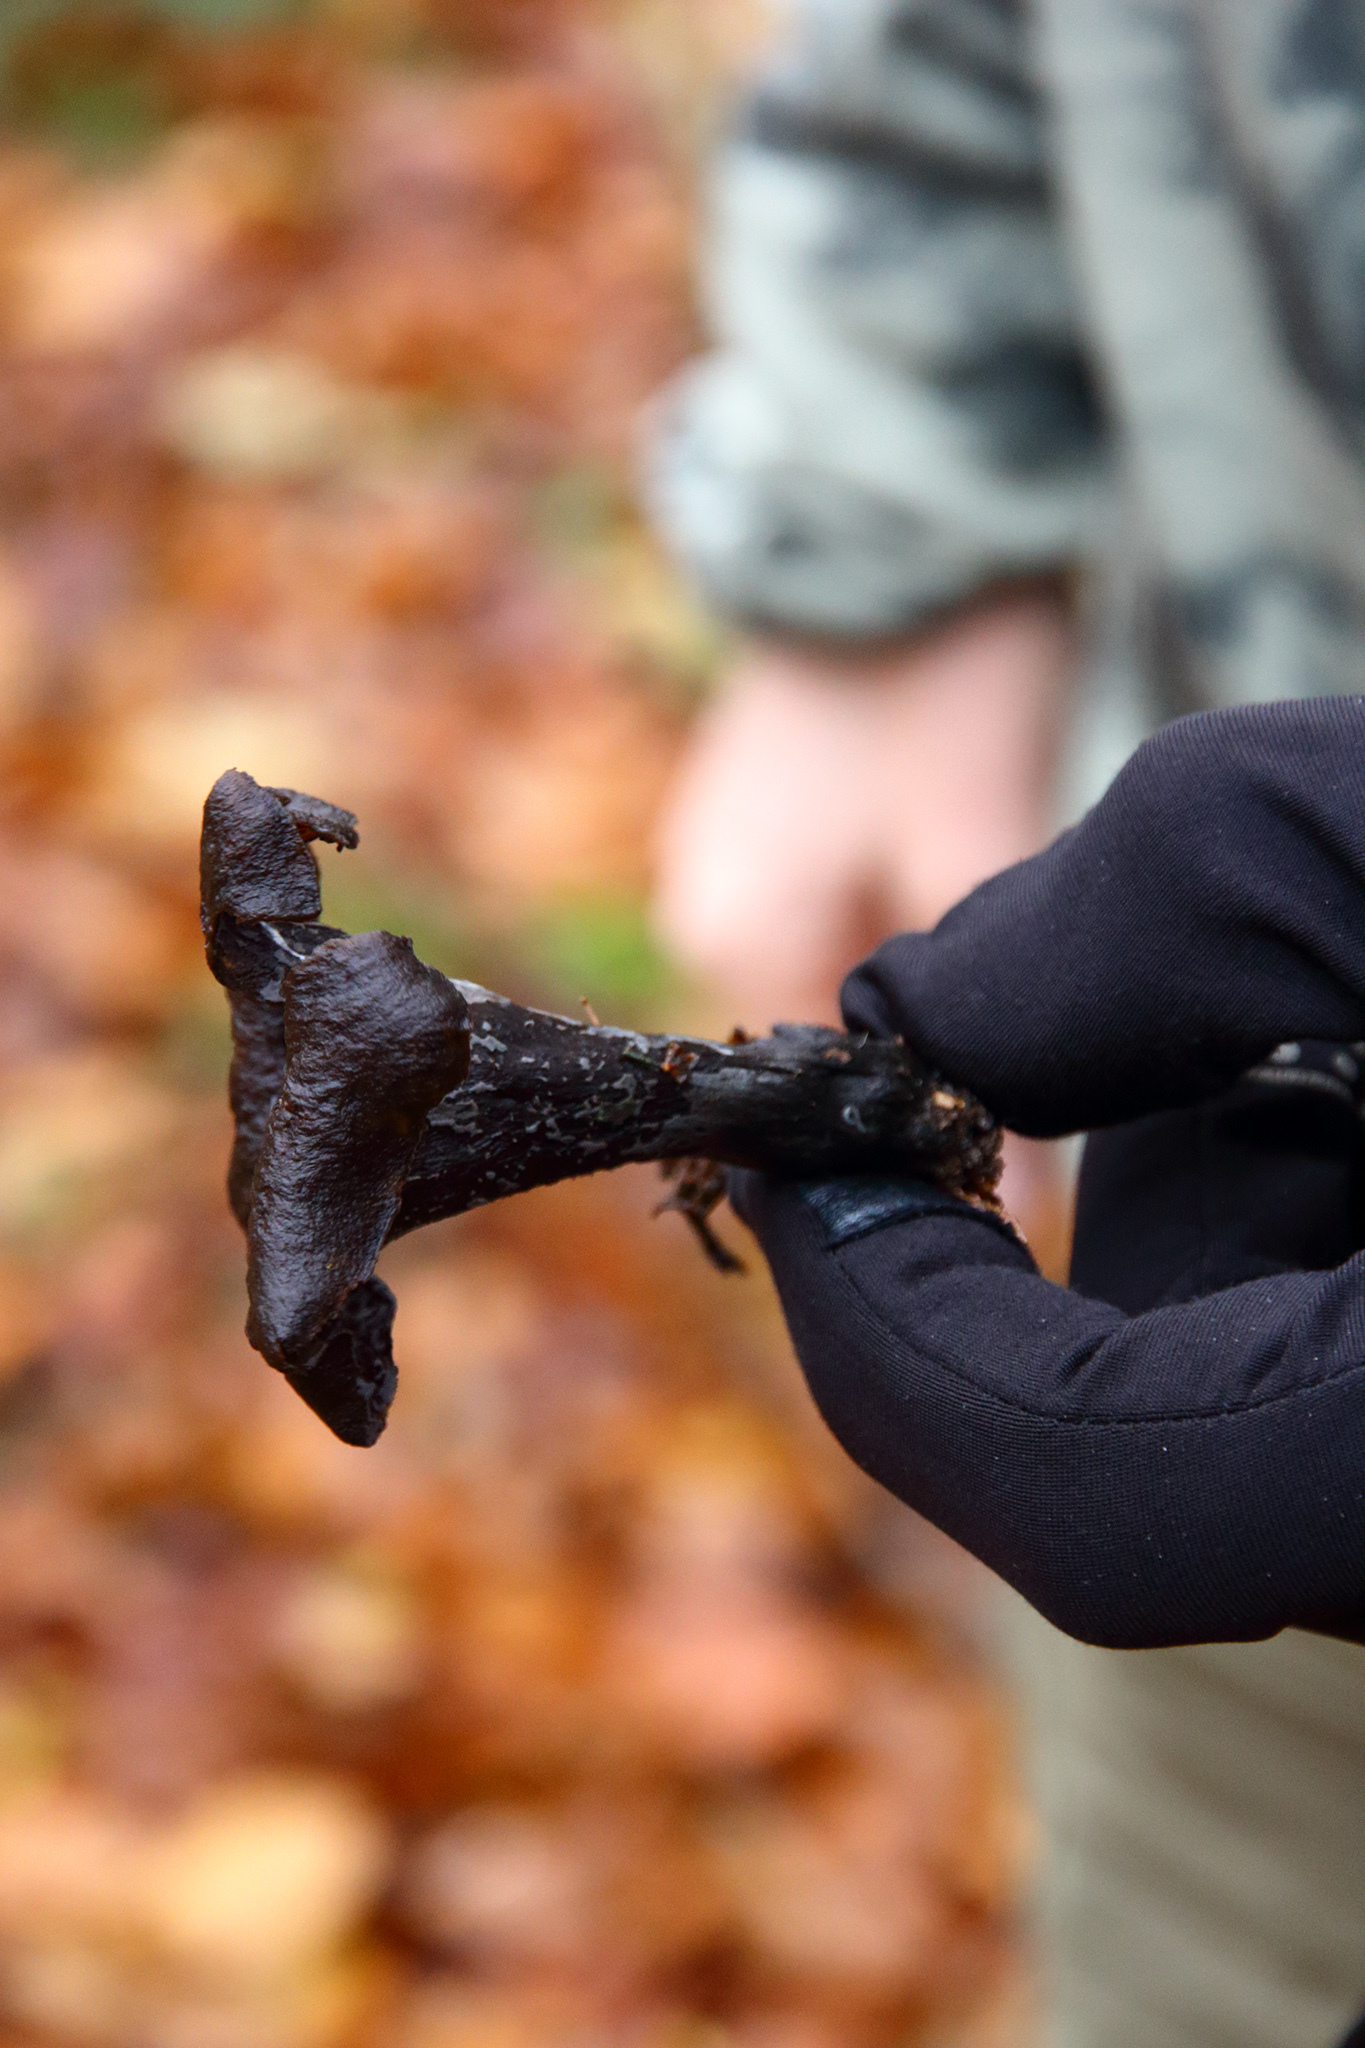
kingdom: Fungi
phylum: Basidiomycota
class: Agaricomycetes
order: Cantharellales
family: Hydnaceae
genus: Craterellus
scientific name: Craterellus cornucopioides
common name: Horn of plenty
